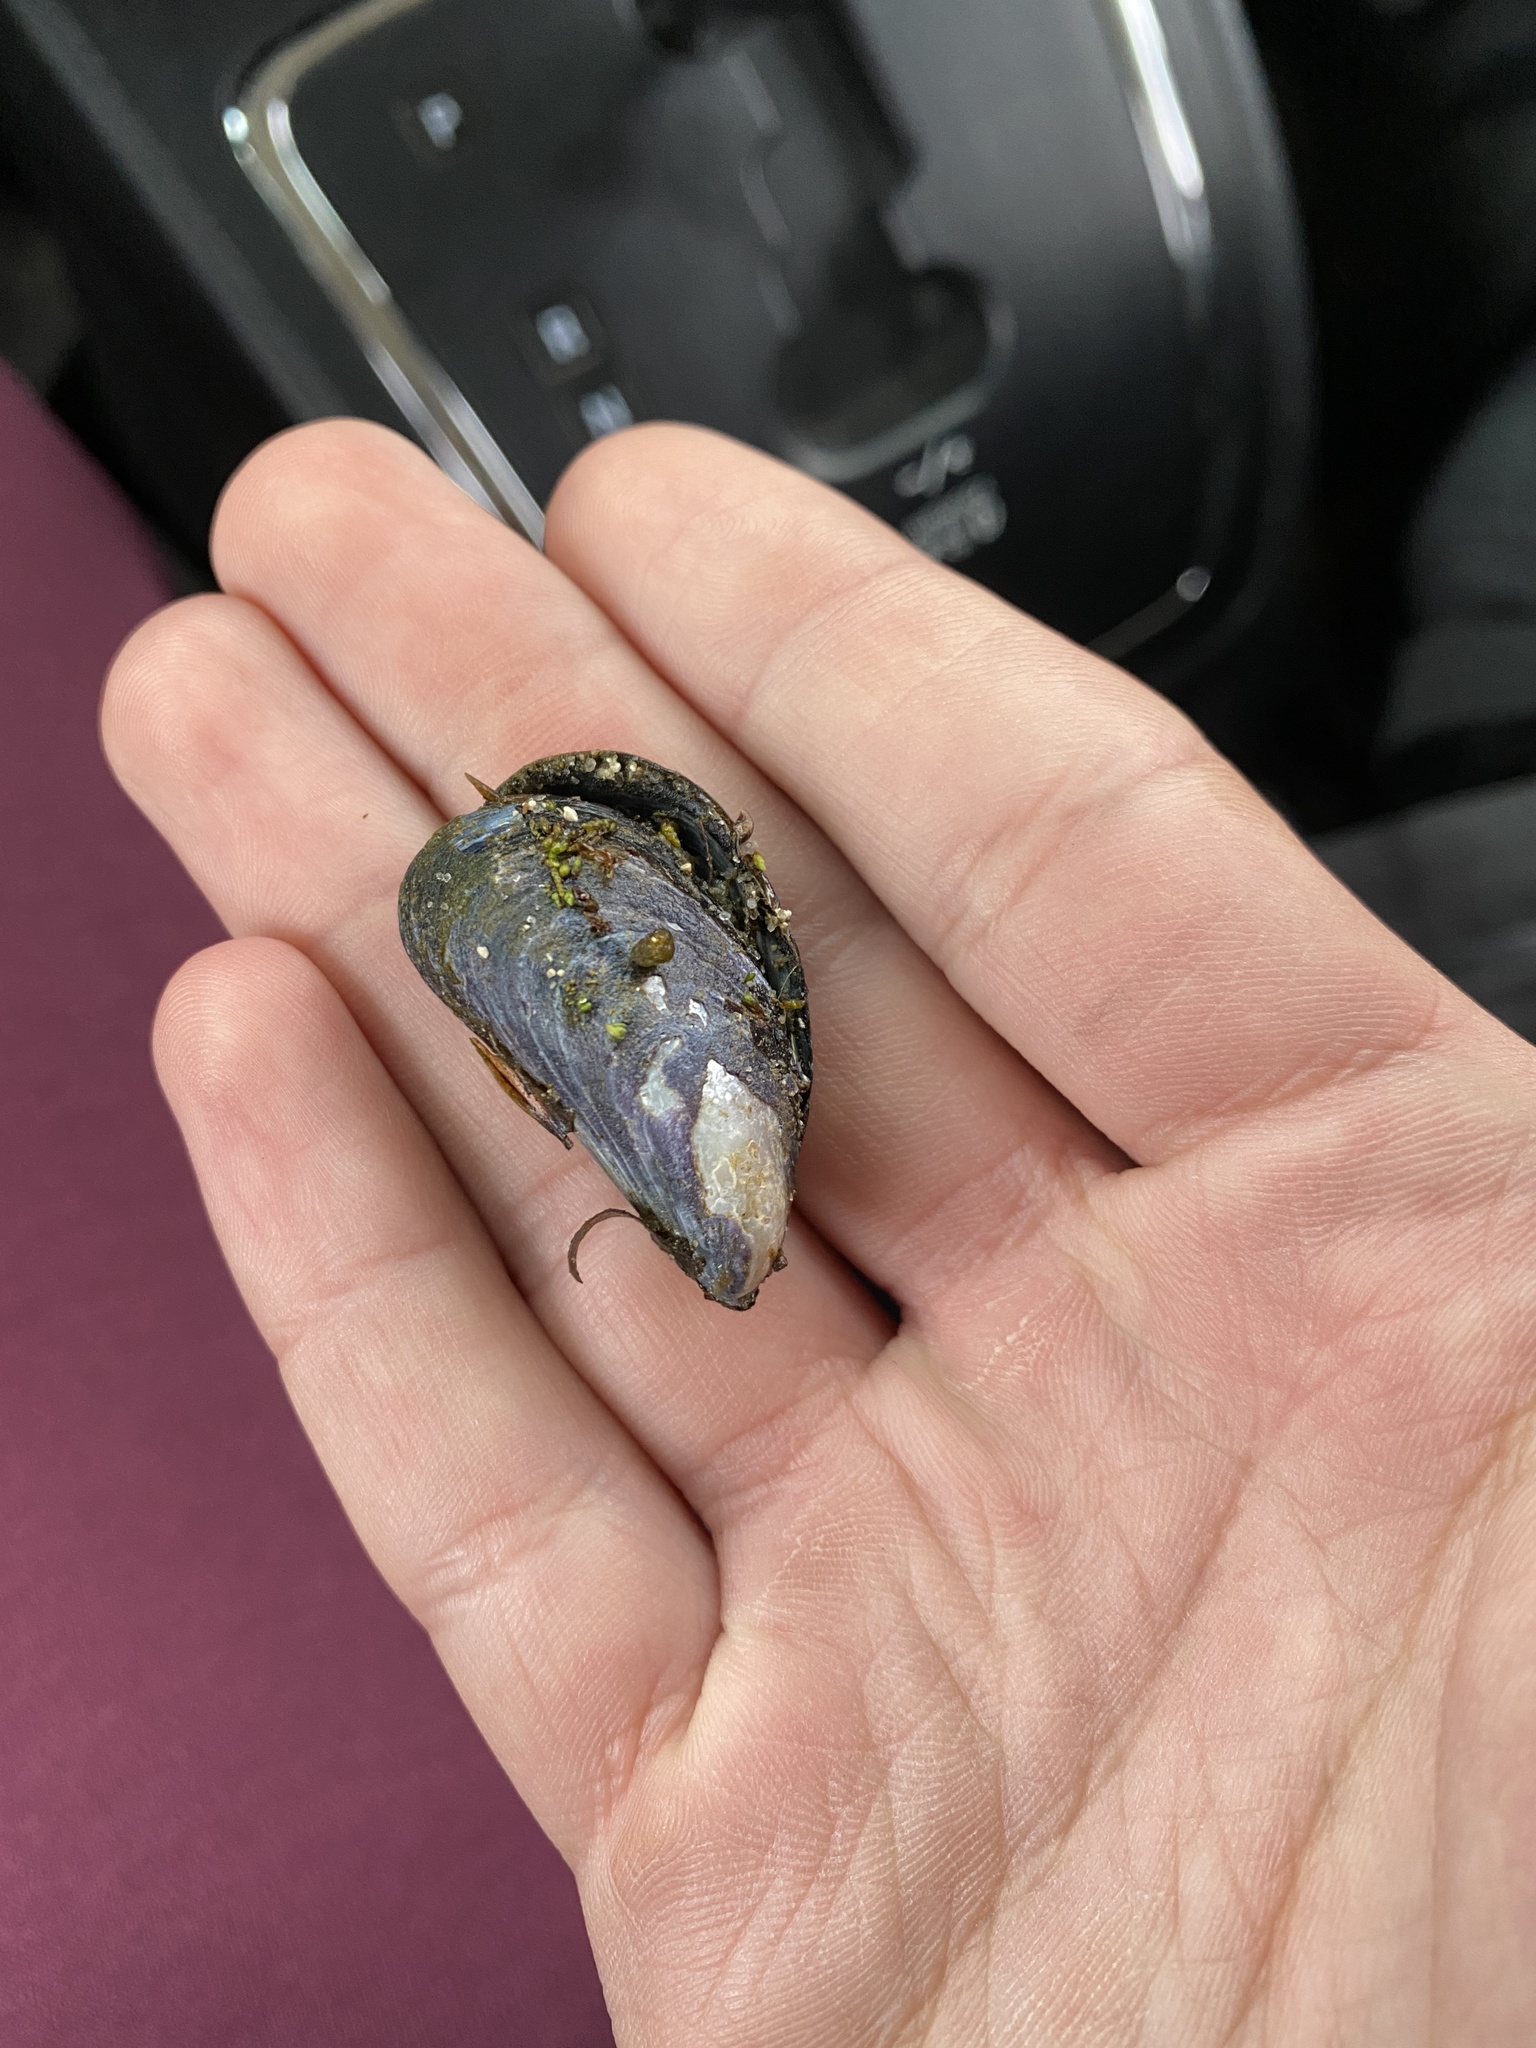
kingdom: Animalia
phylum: Mollusca
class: Bivalvia
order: Mytilida
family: Mytilidae
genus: Mytilus
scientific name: Mytilus edulis
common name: Blue mussel
